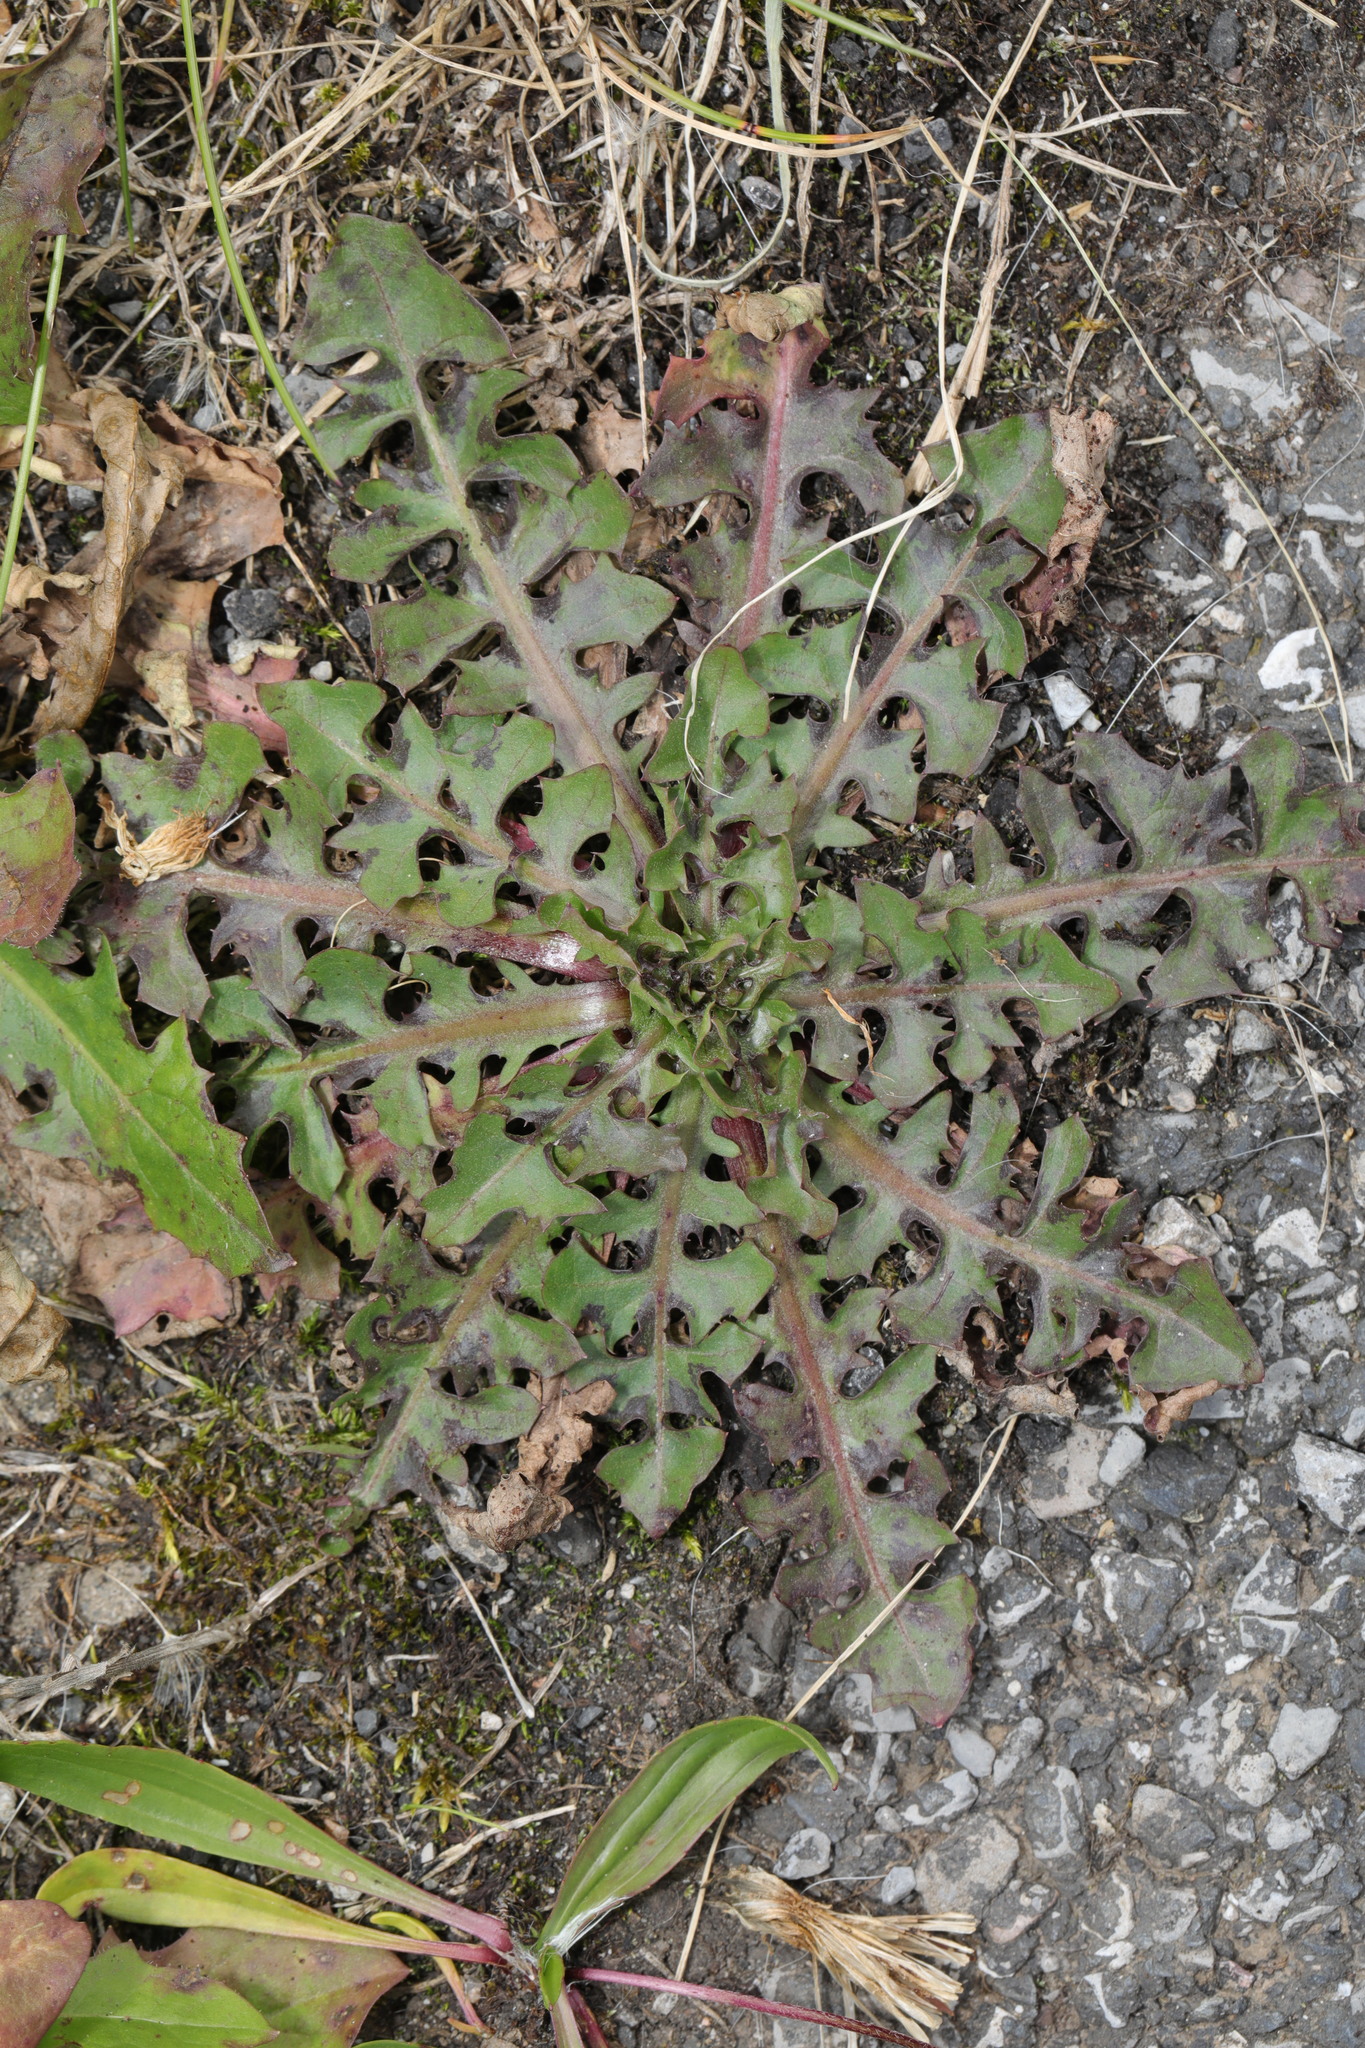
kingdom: Plantae
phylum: Tracheophyta
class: Magnoliopsida
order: Asterales
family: Asteraceae
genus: Taraxacum
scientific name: Taraxacum officinale
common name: Common dandelion
